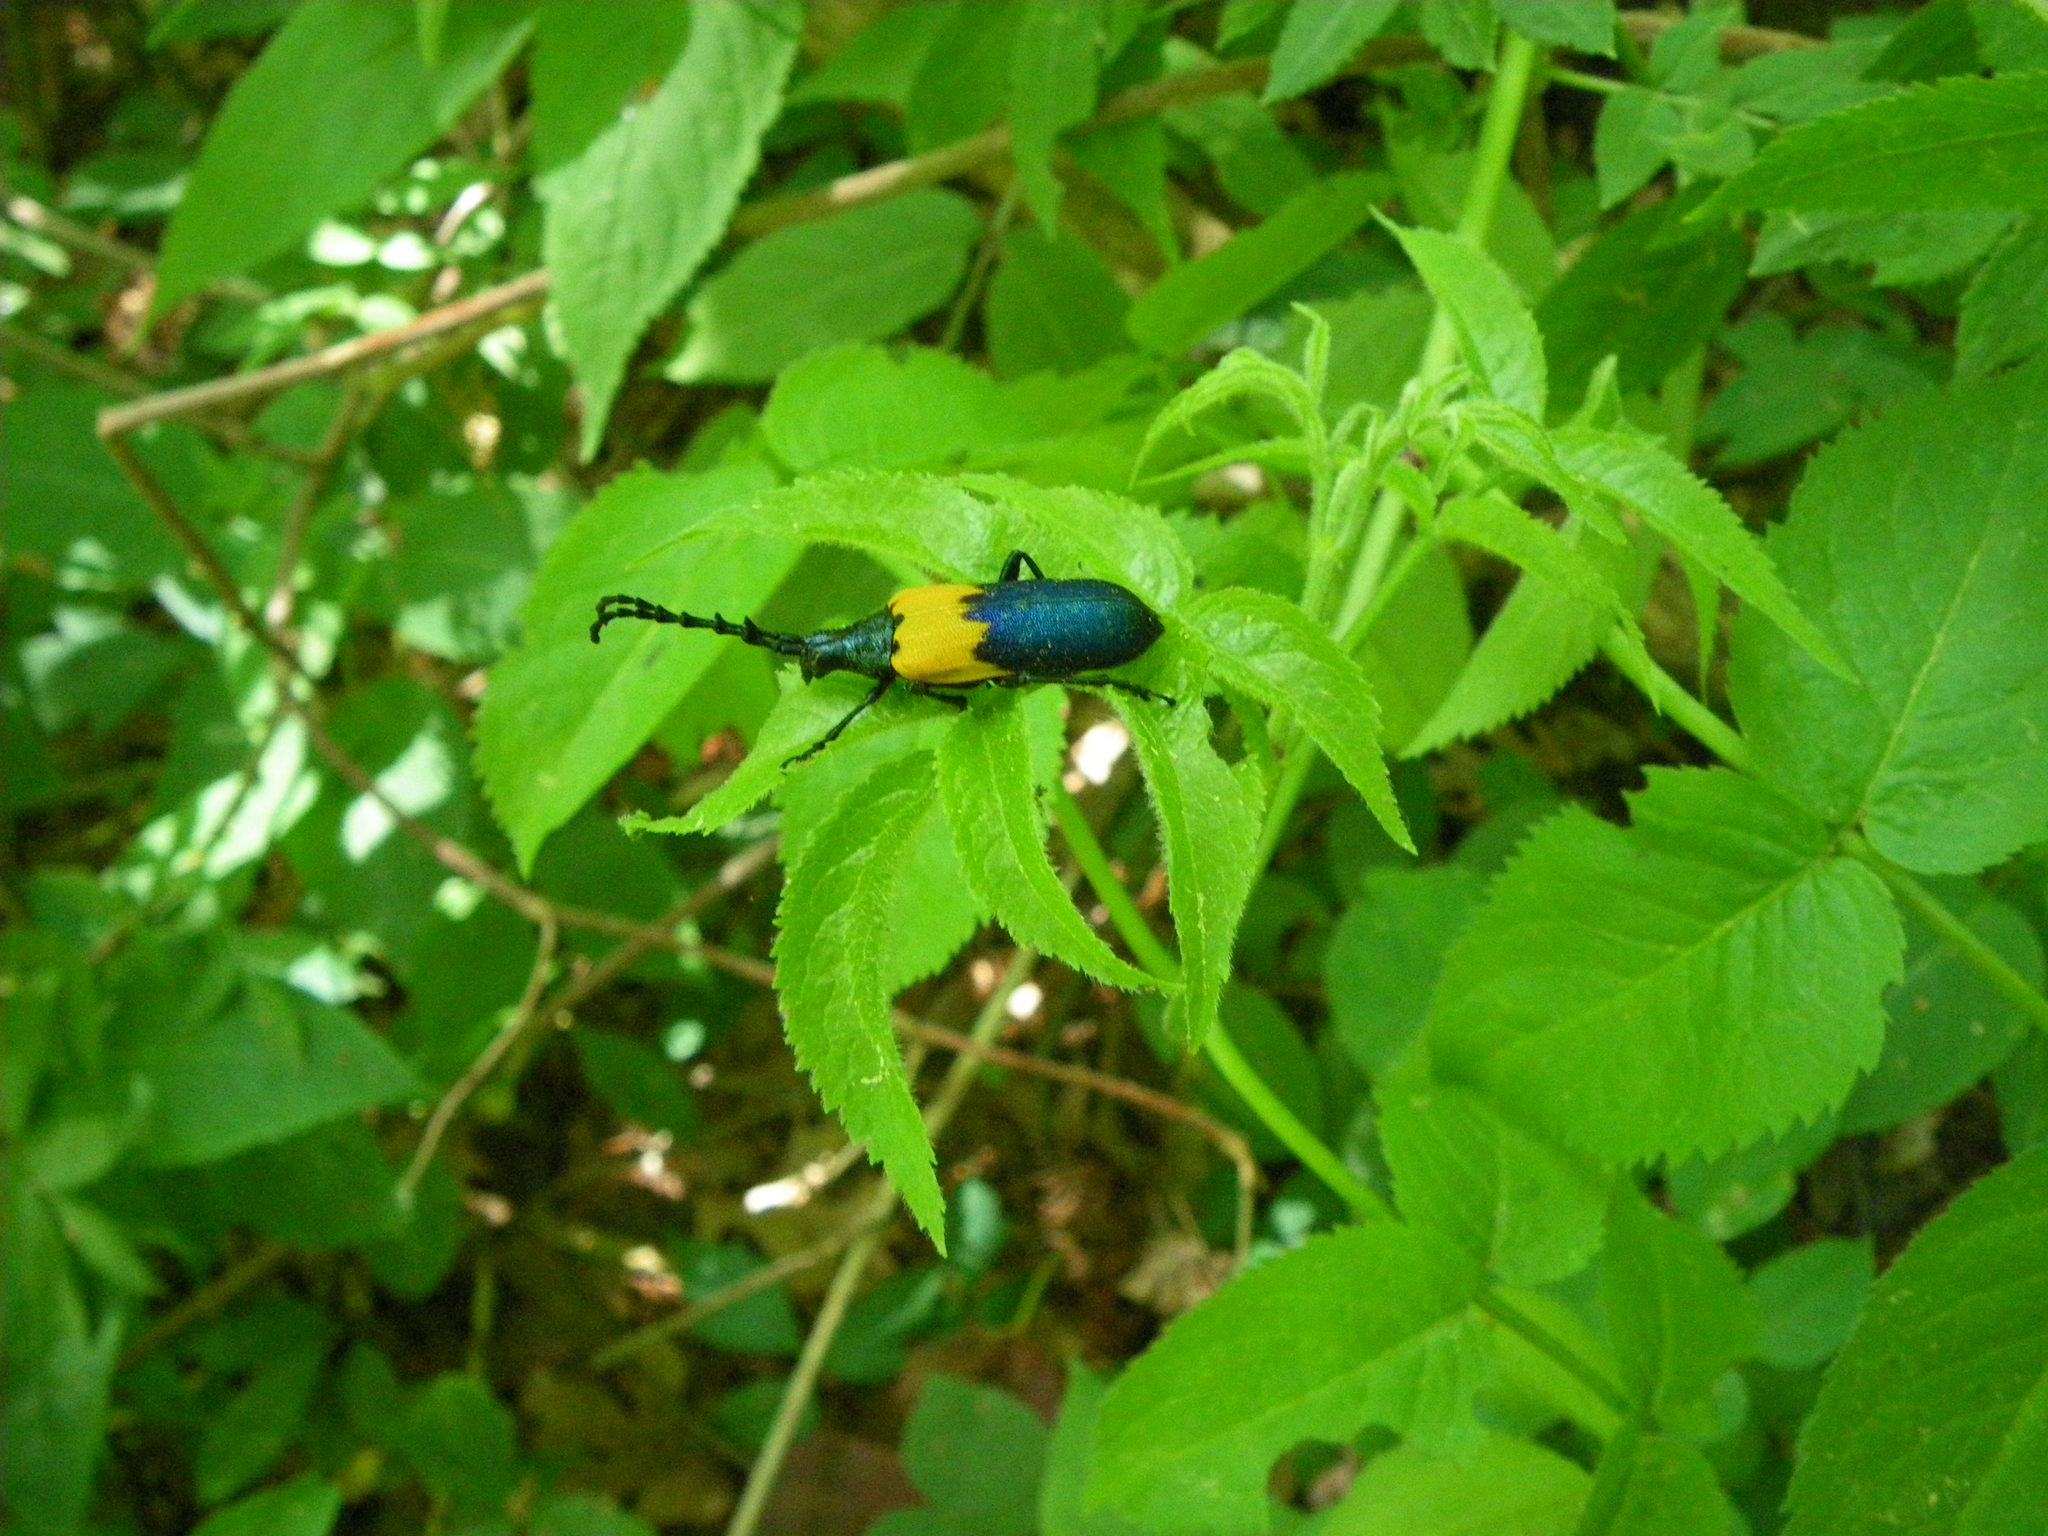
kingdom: Animalia
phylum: Arthropoda
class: Insecta
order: Coleoptera
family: Cerambycidae
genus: Desmocerus
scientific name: Desmocerus palliatus
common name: Eastern elderberry borer
